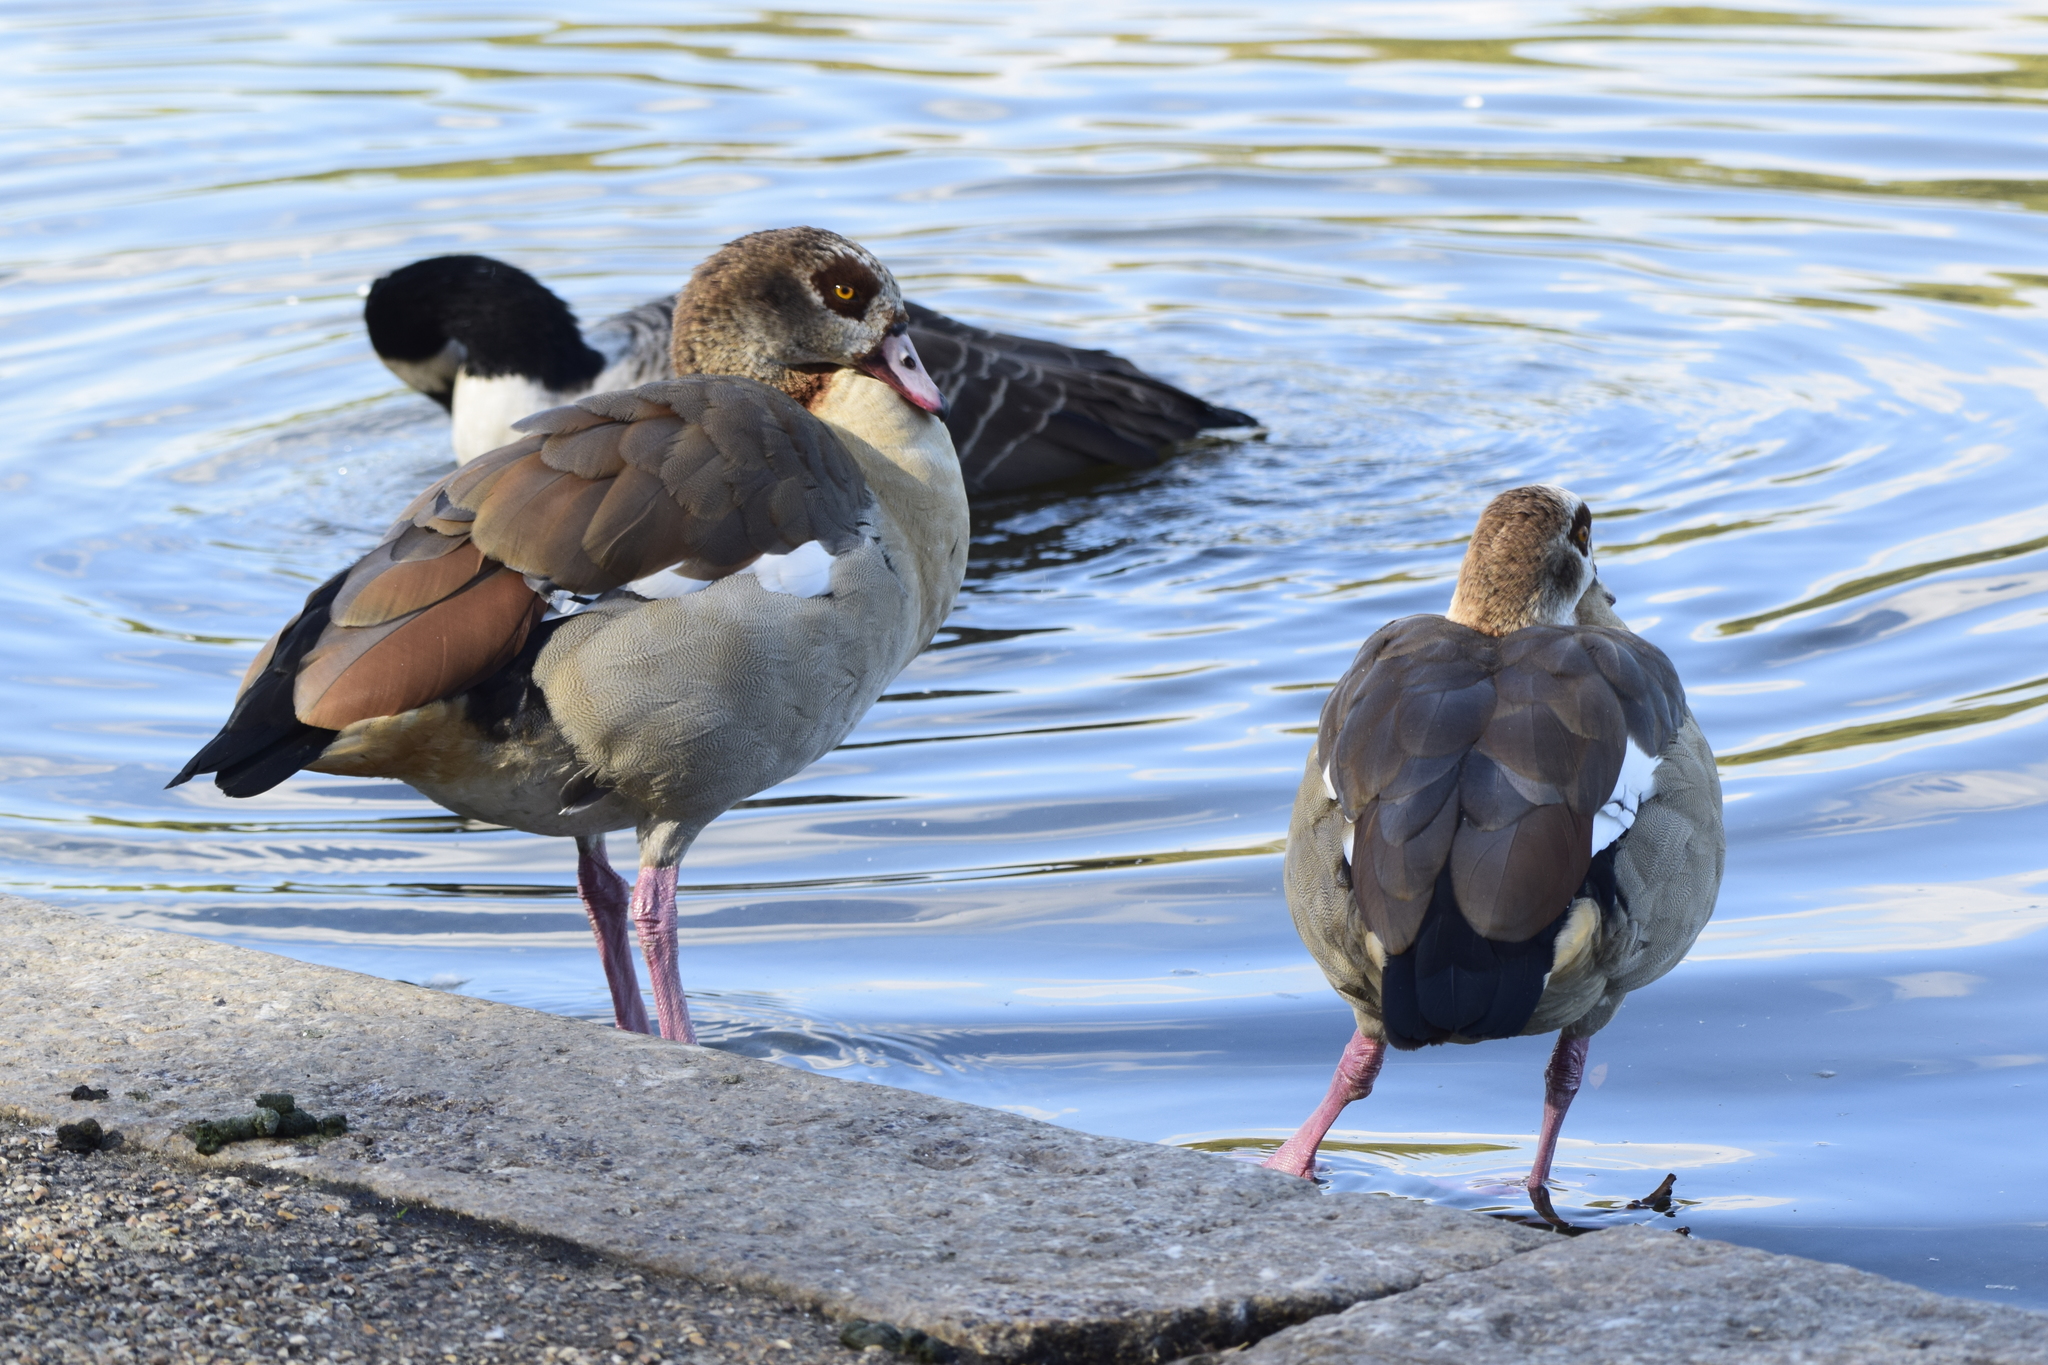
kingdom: Animalia
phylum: Chordata
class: Aves
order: Anseriformes
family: Anatidae
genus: Alopochen
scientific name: Alopochen aegyptiaca
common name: Egyptian goose
